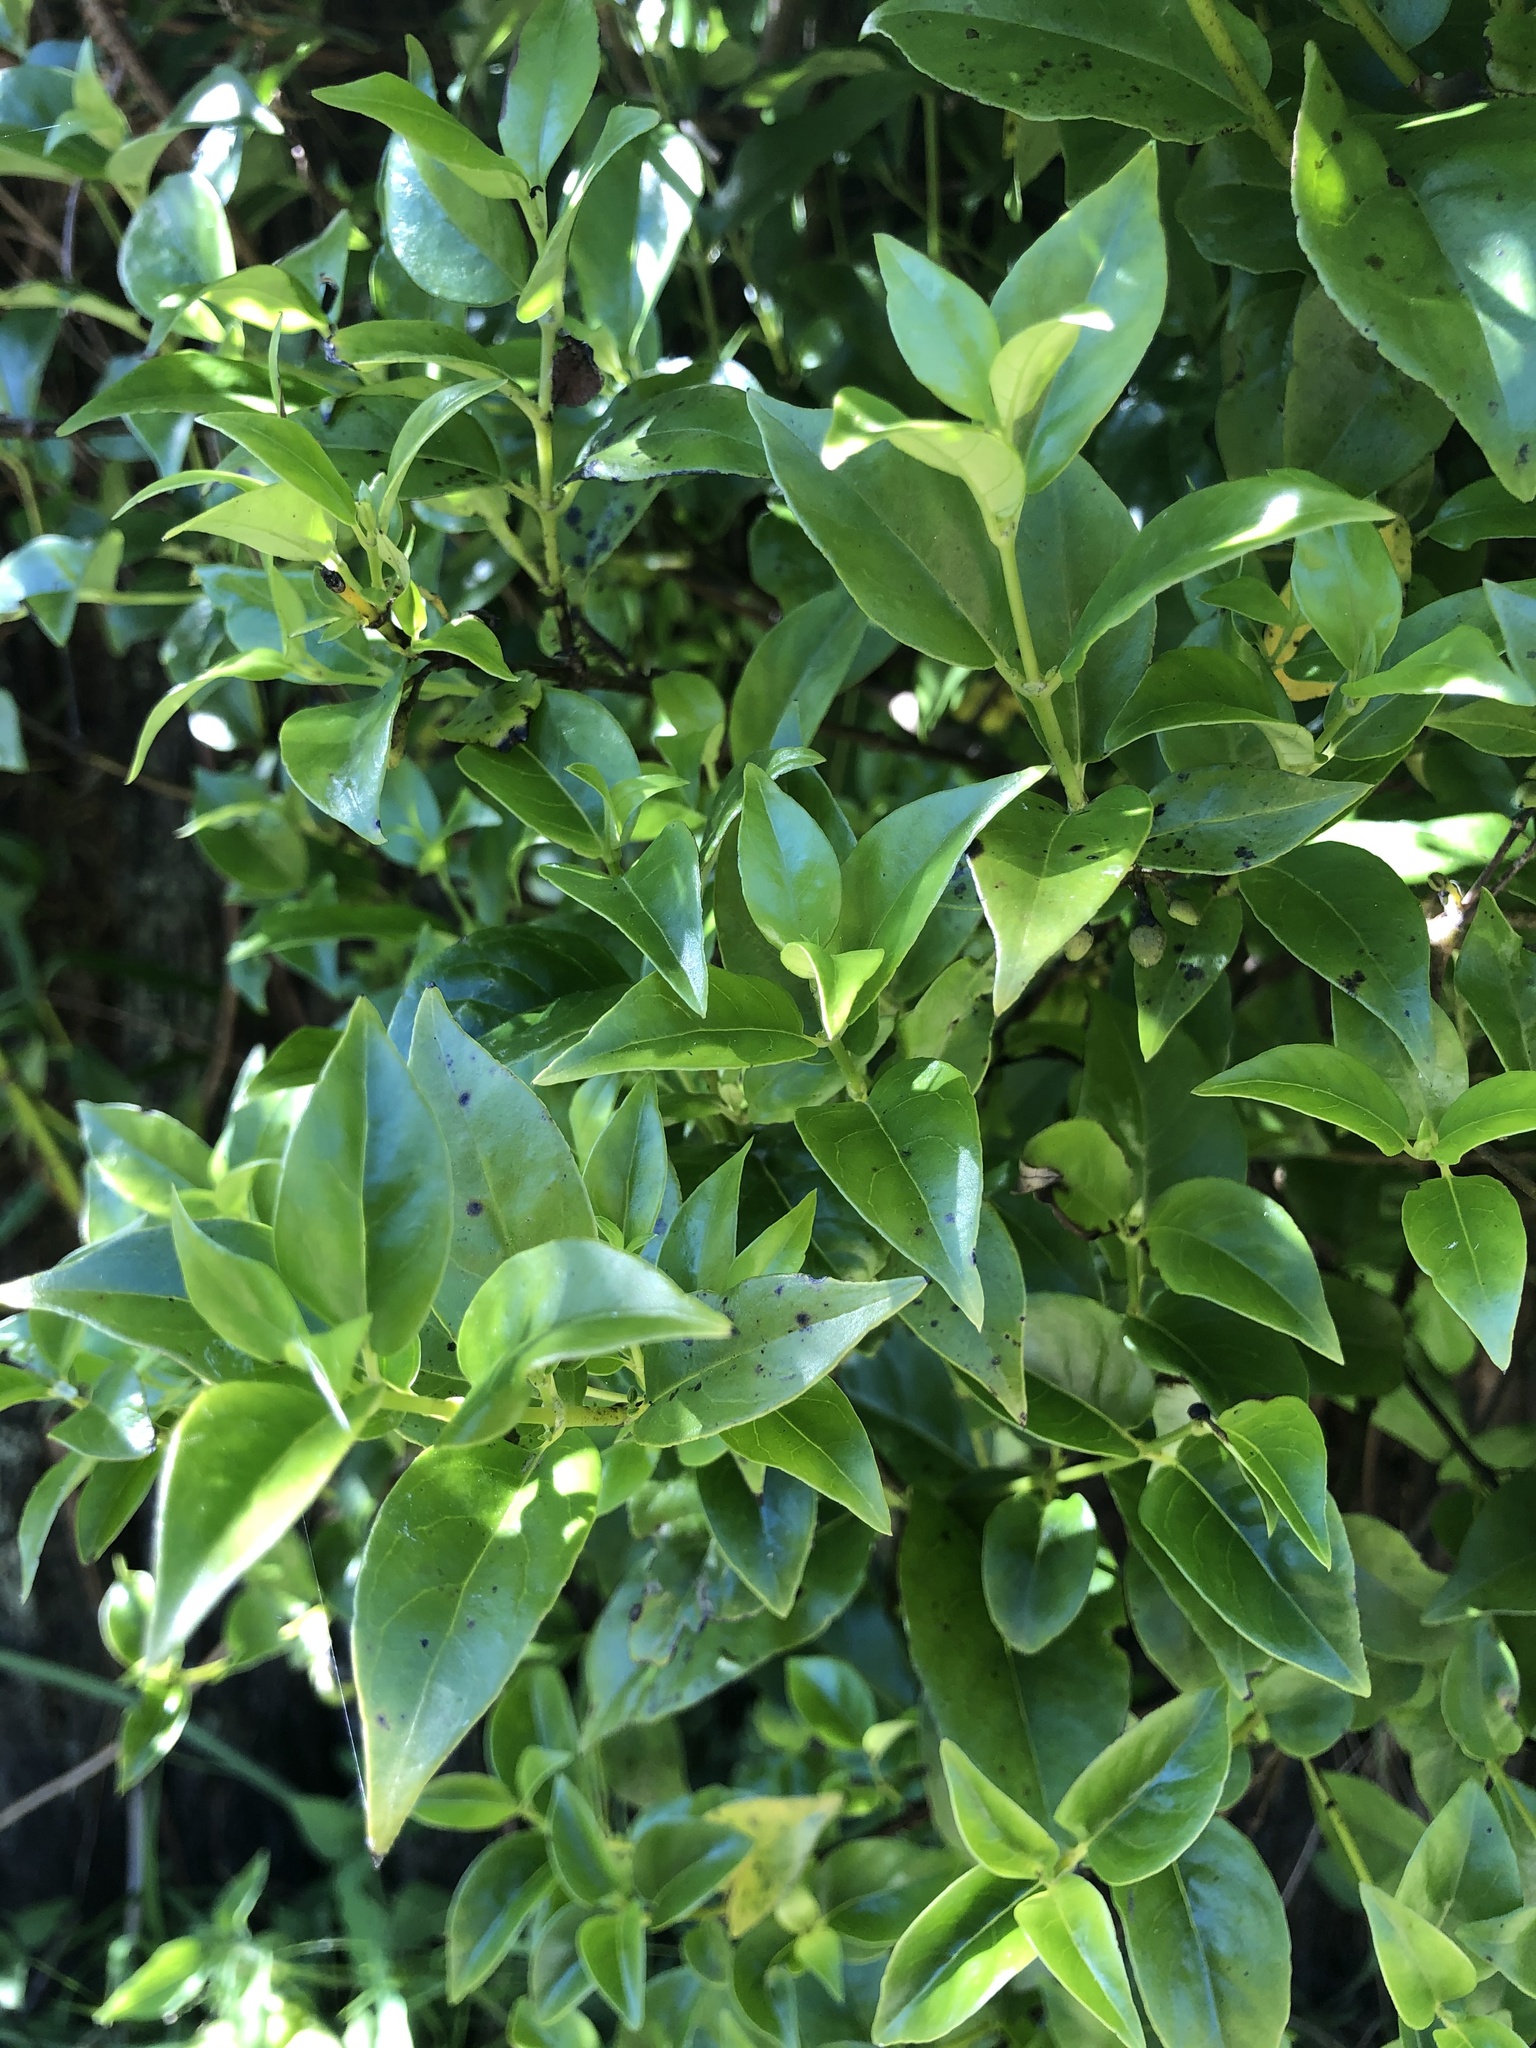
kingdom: Plantae
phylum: Tracheophyta
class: Magnoliopsida
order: Gentianales
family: Loganiaceae
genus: Geniostoma
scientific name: Geniostoma ligustrifolium
